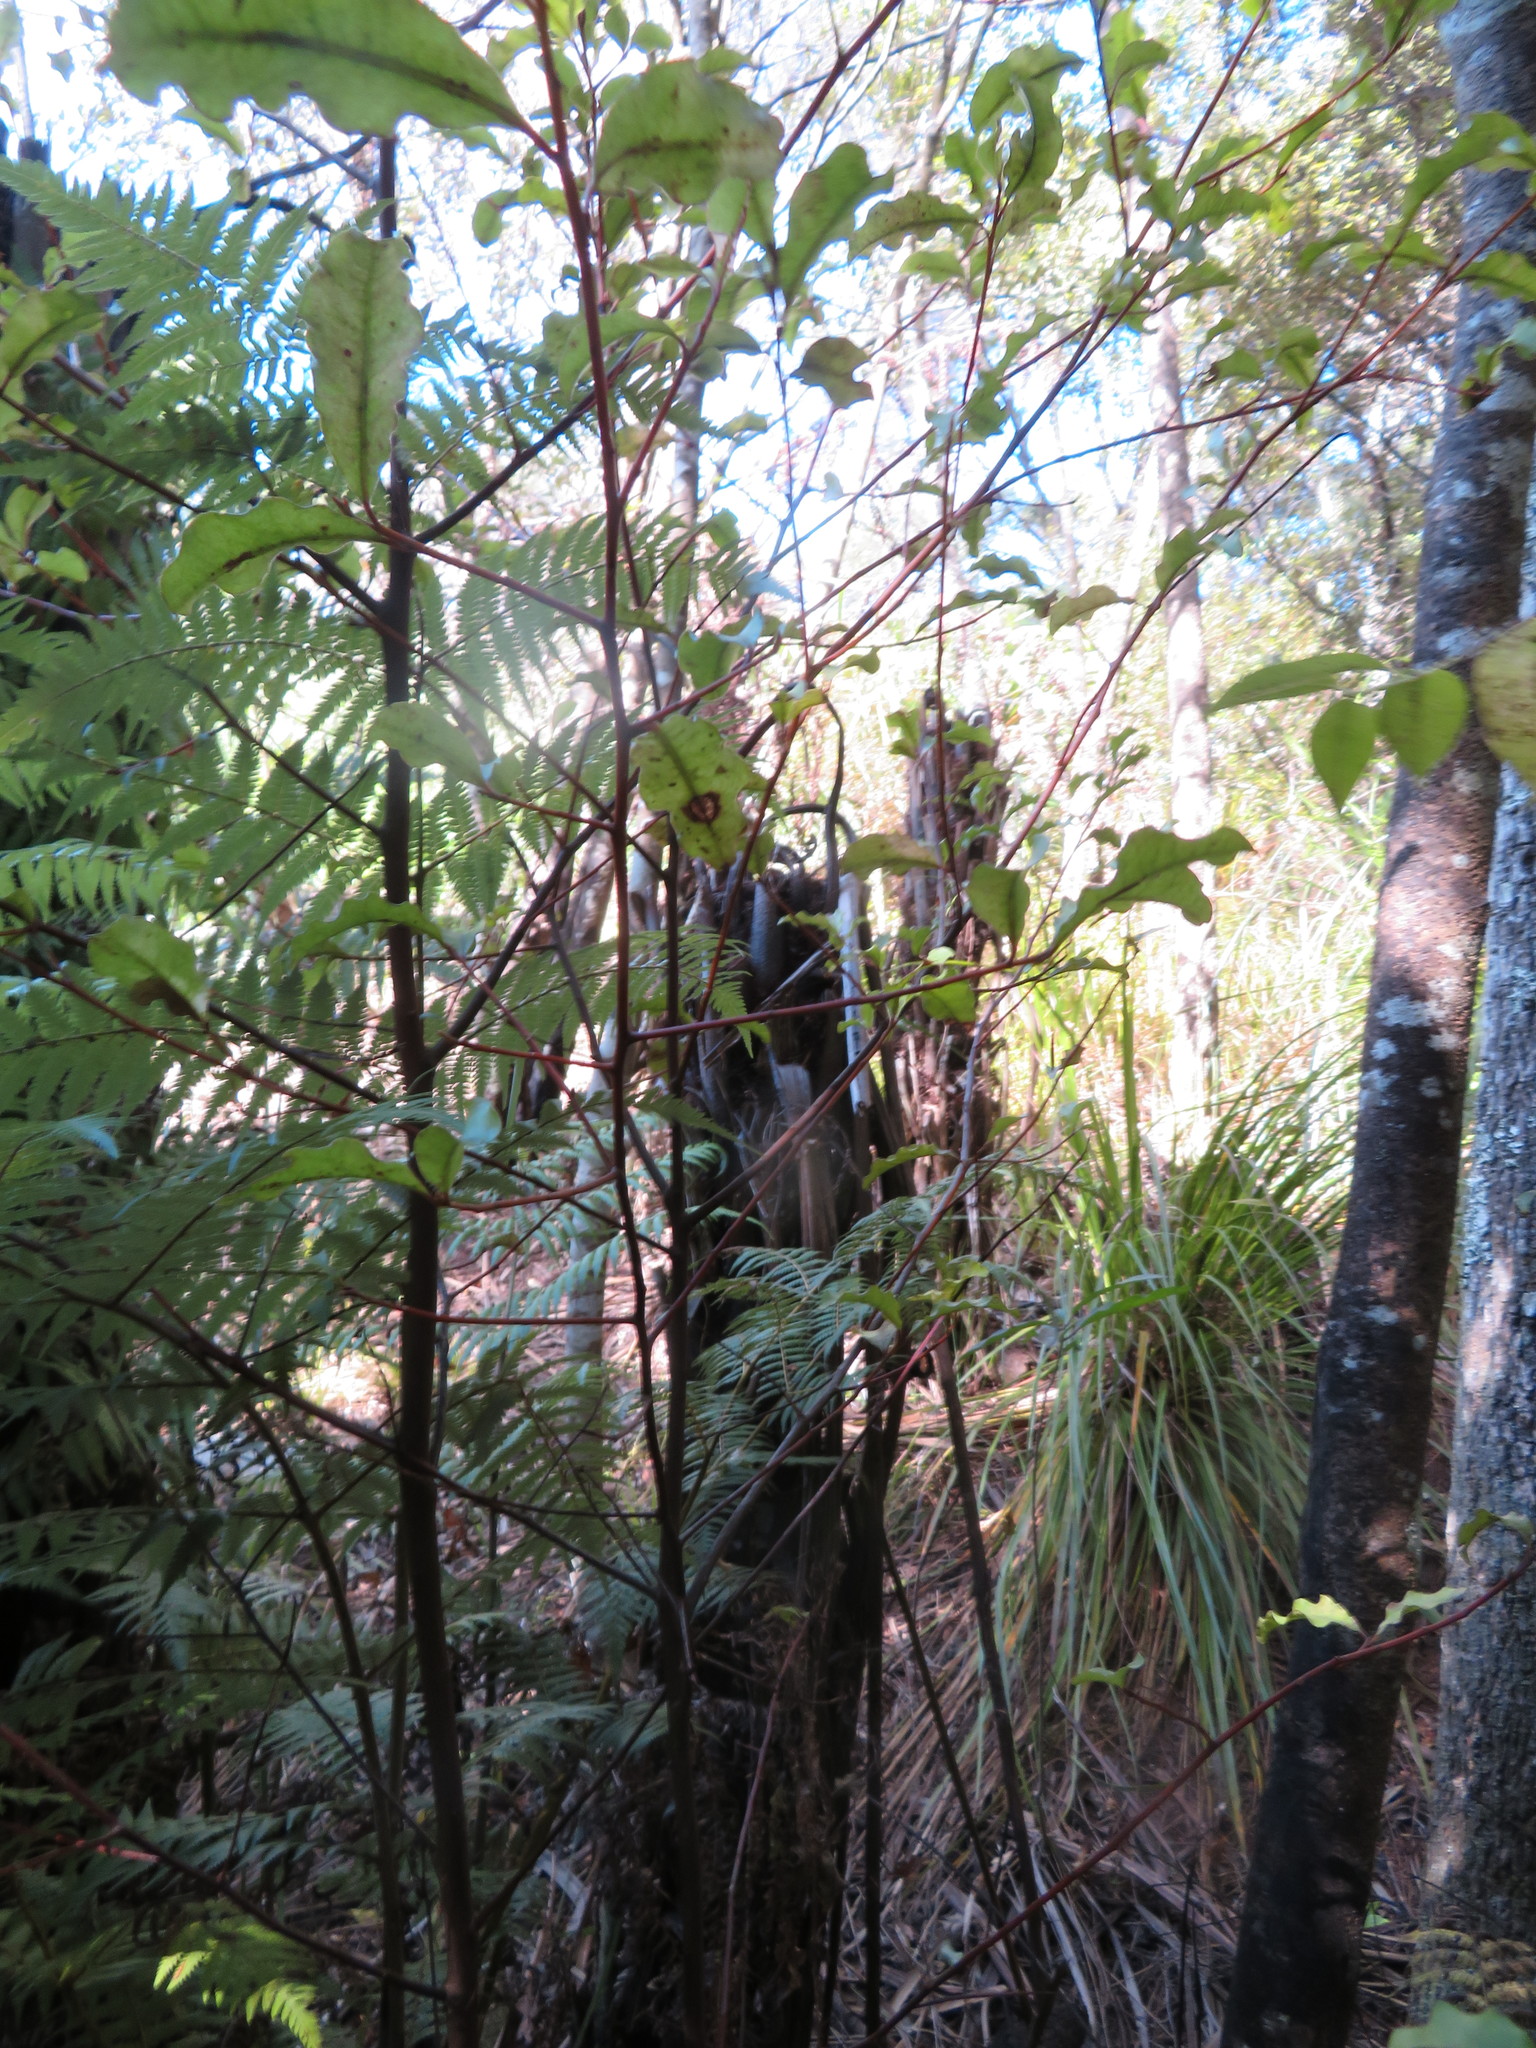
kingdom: Plantae
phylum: Tracheophyta
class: Magnoliopsida
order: Ericales
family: Primulaceae
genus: Myrsine
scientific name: Myrsine australis
